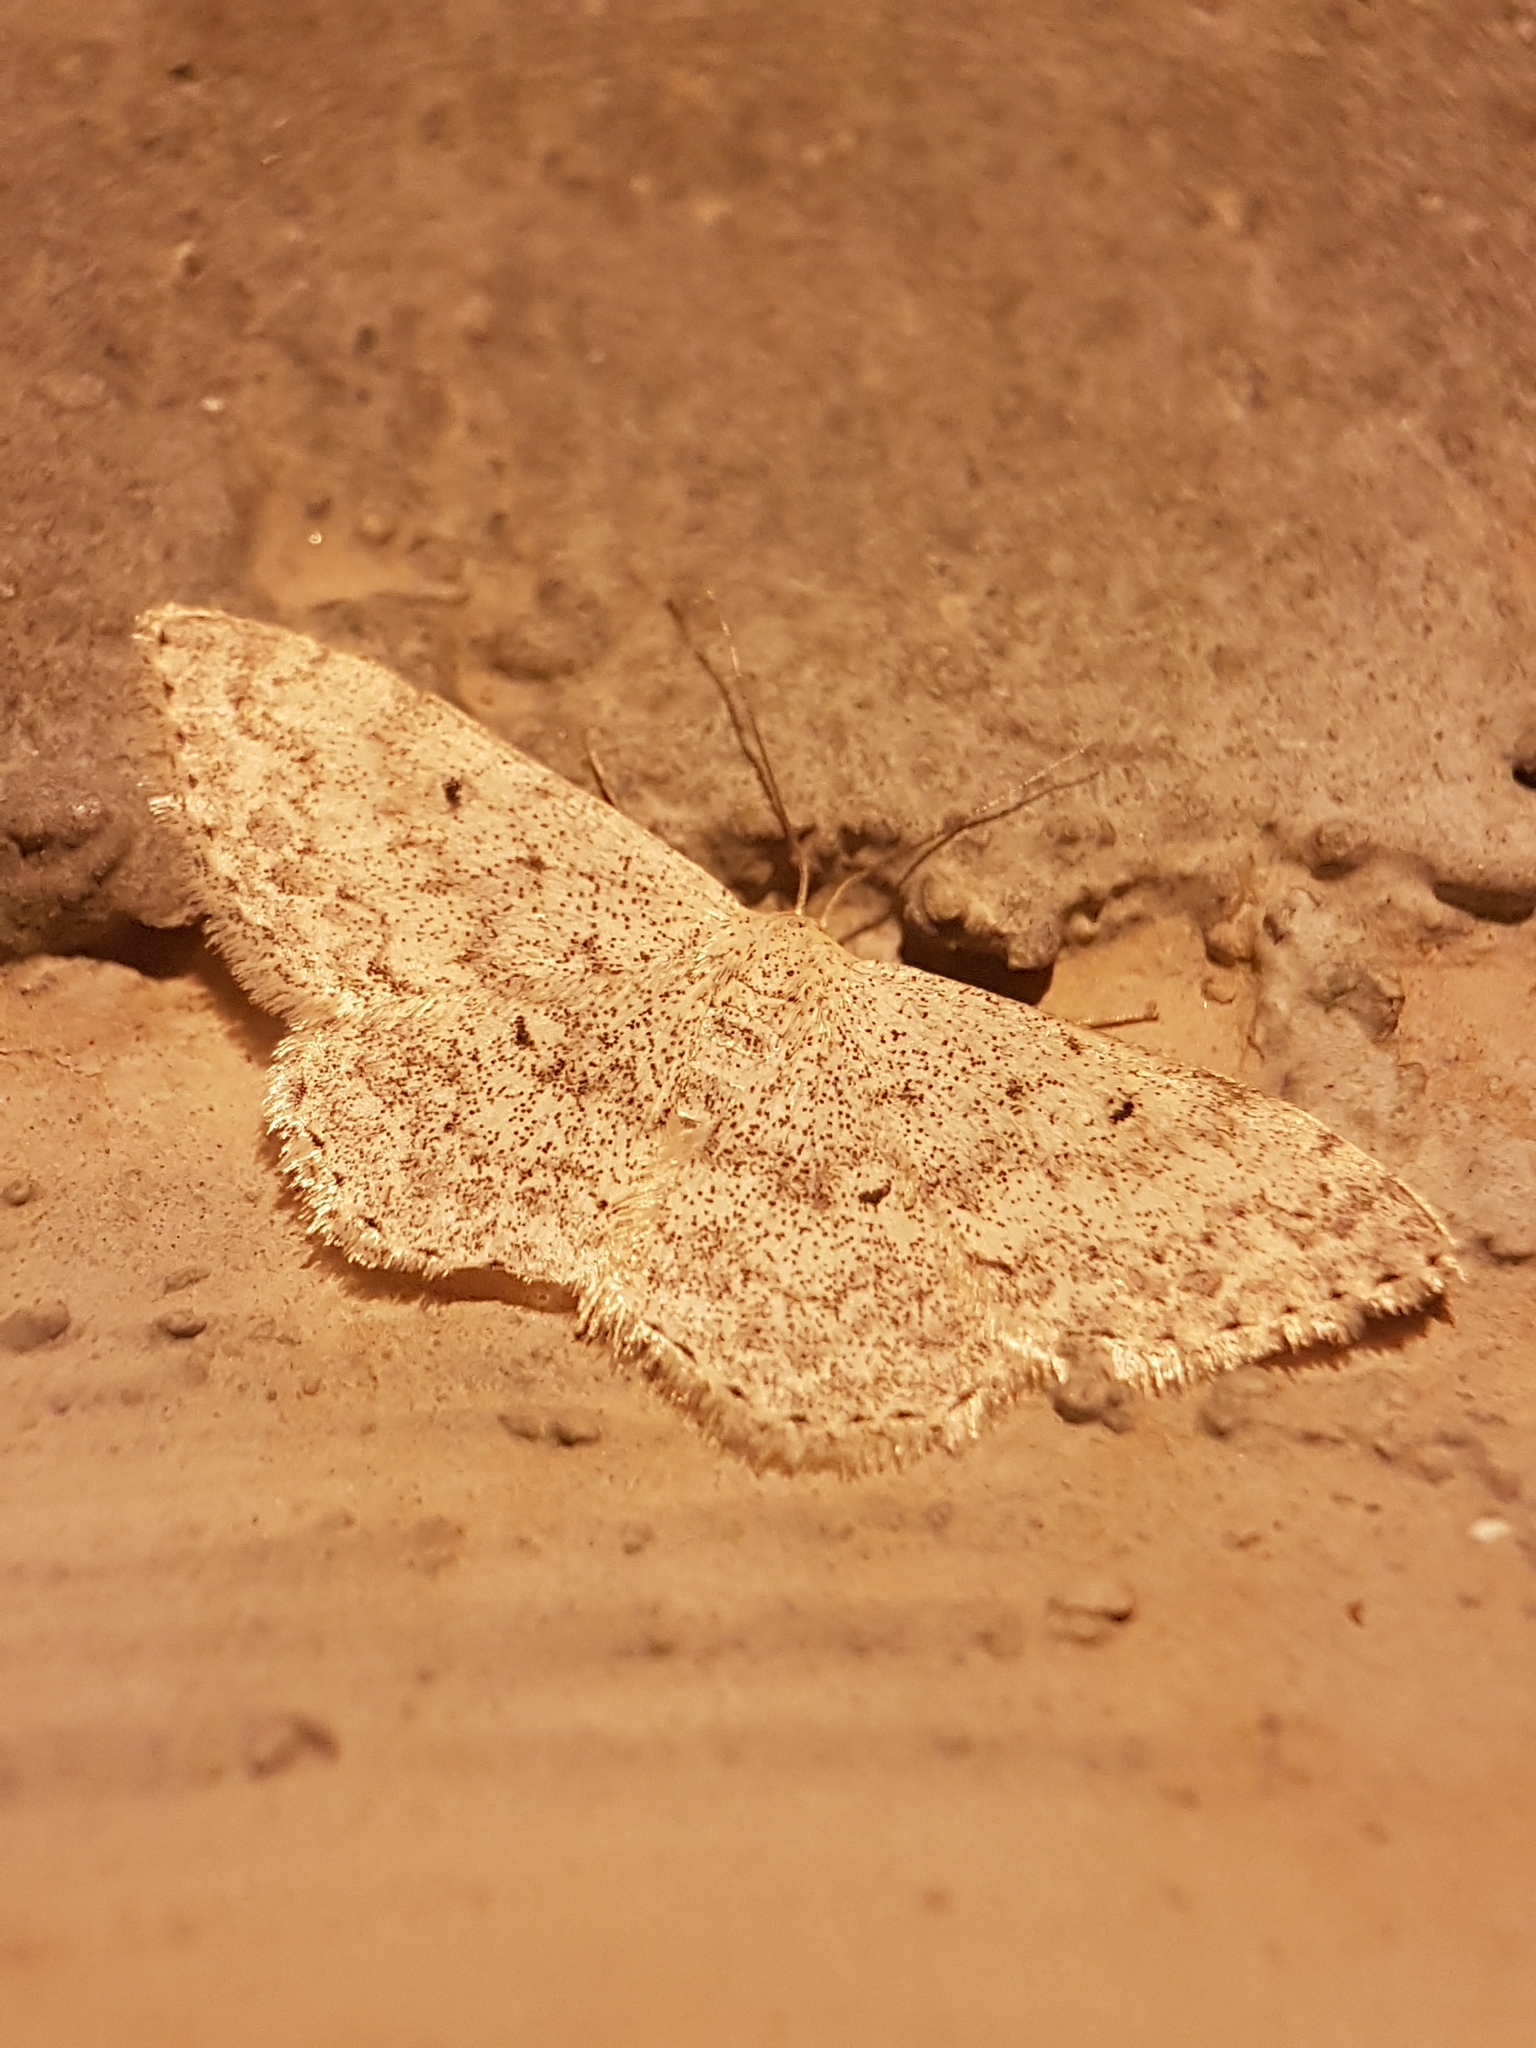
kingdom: Animalia
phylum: Arthropoda
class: Insecta
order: Lepidoptera
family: Geometridae
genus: Scopula
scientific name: Scopula marginepunctata
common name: Mullein wave
